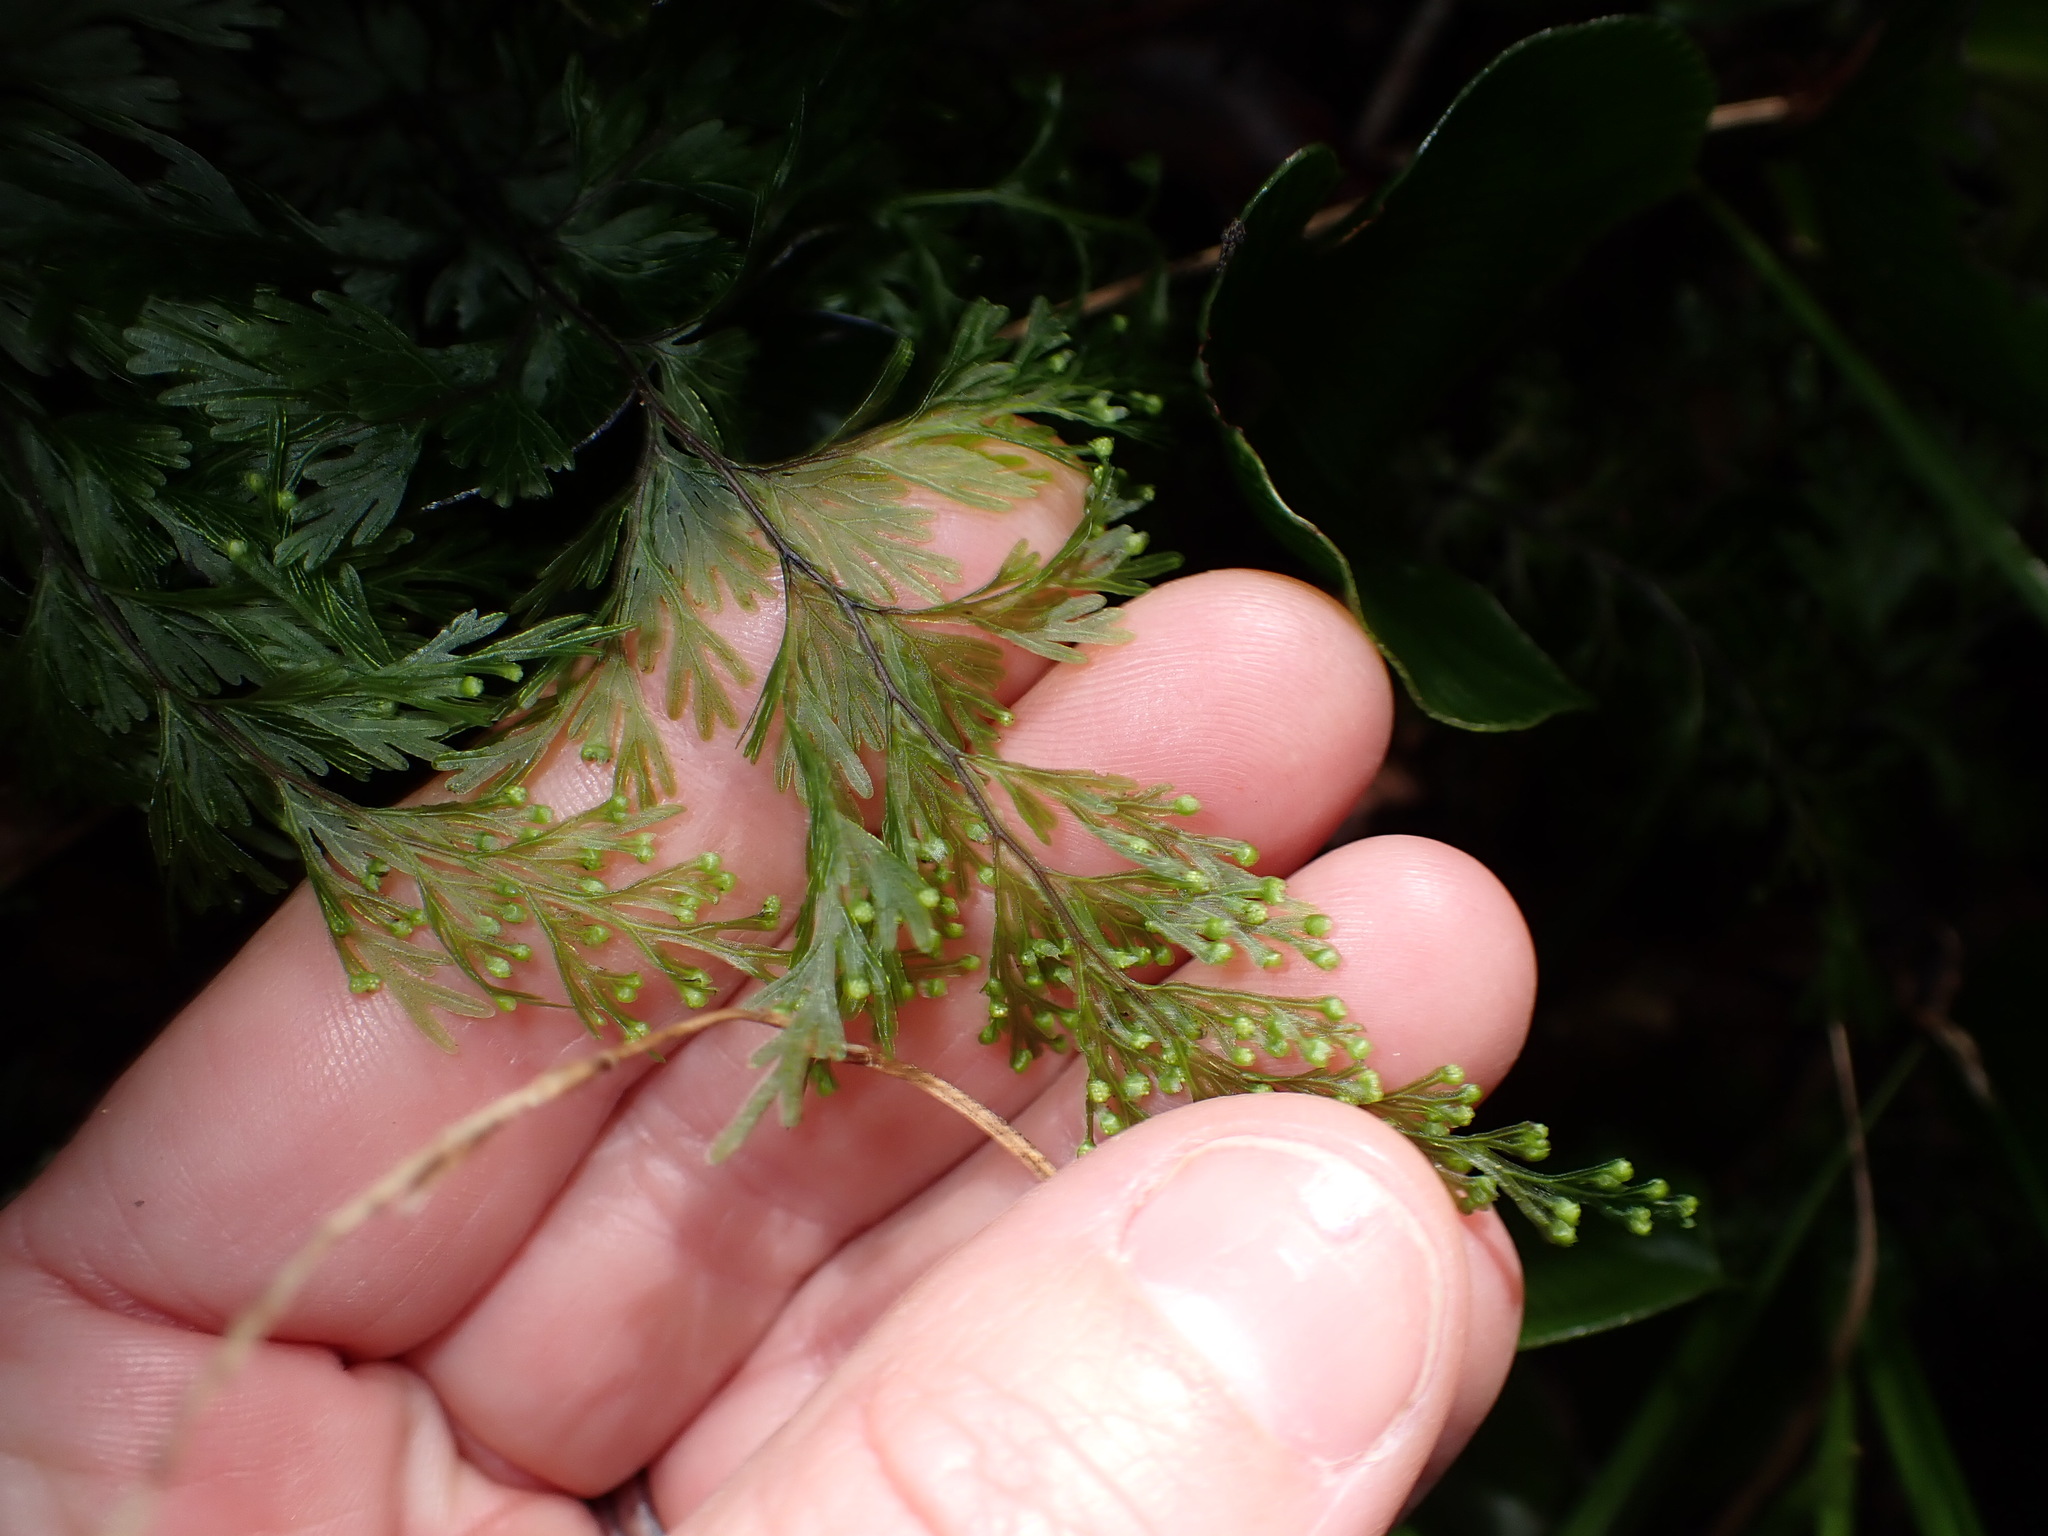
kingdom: Plantae
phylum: Tracheophyta
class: Polypodiopsida
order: Hymenophyllales
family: Hymenophyllaceae
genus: Hymenophyllum
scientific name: Hymenophyllum dilatatum
